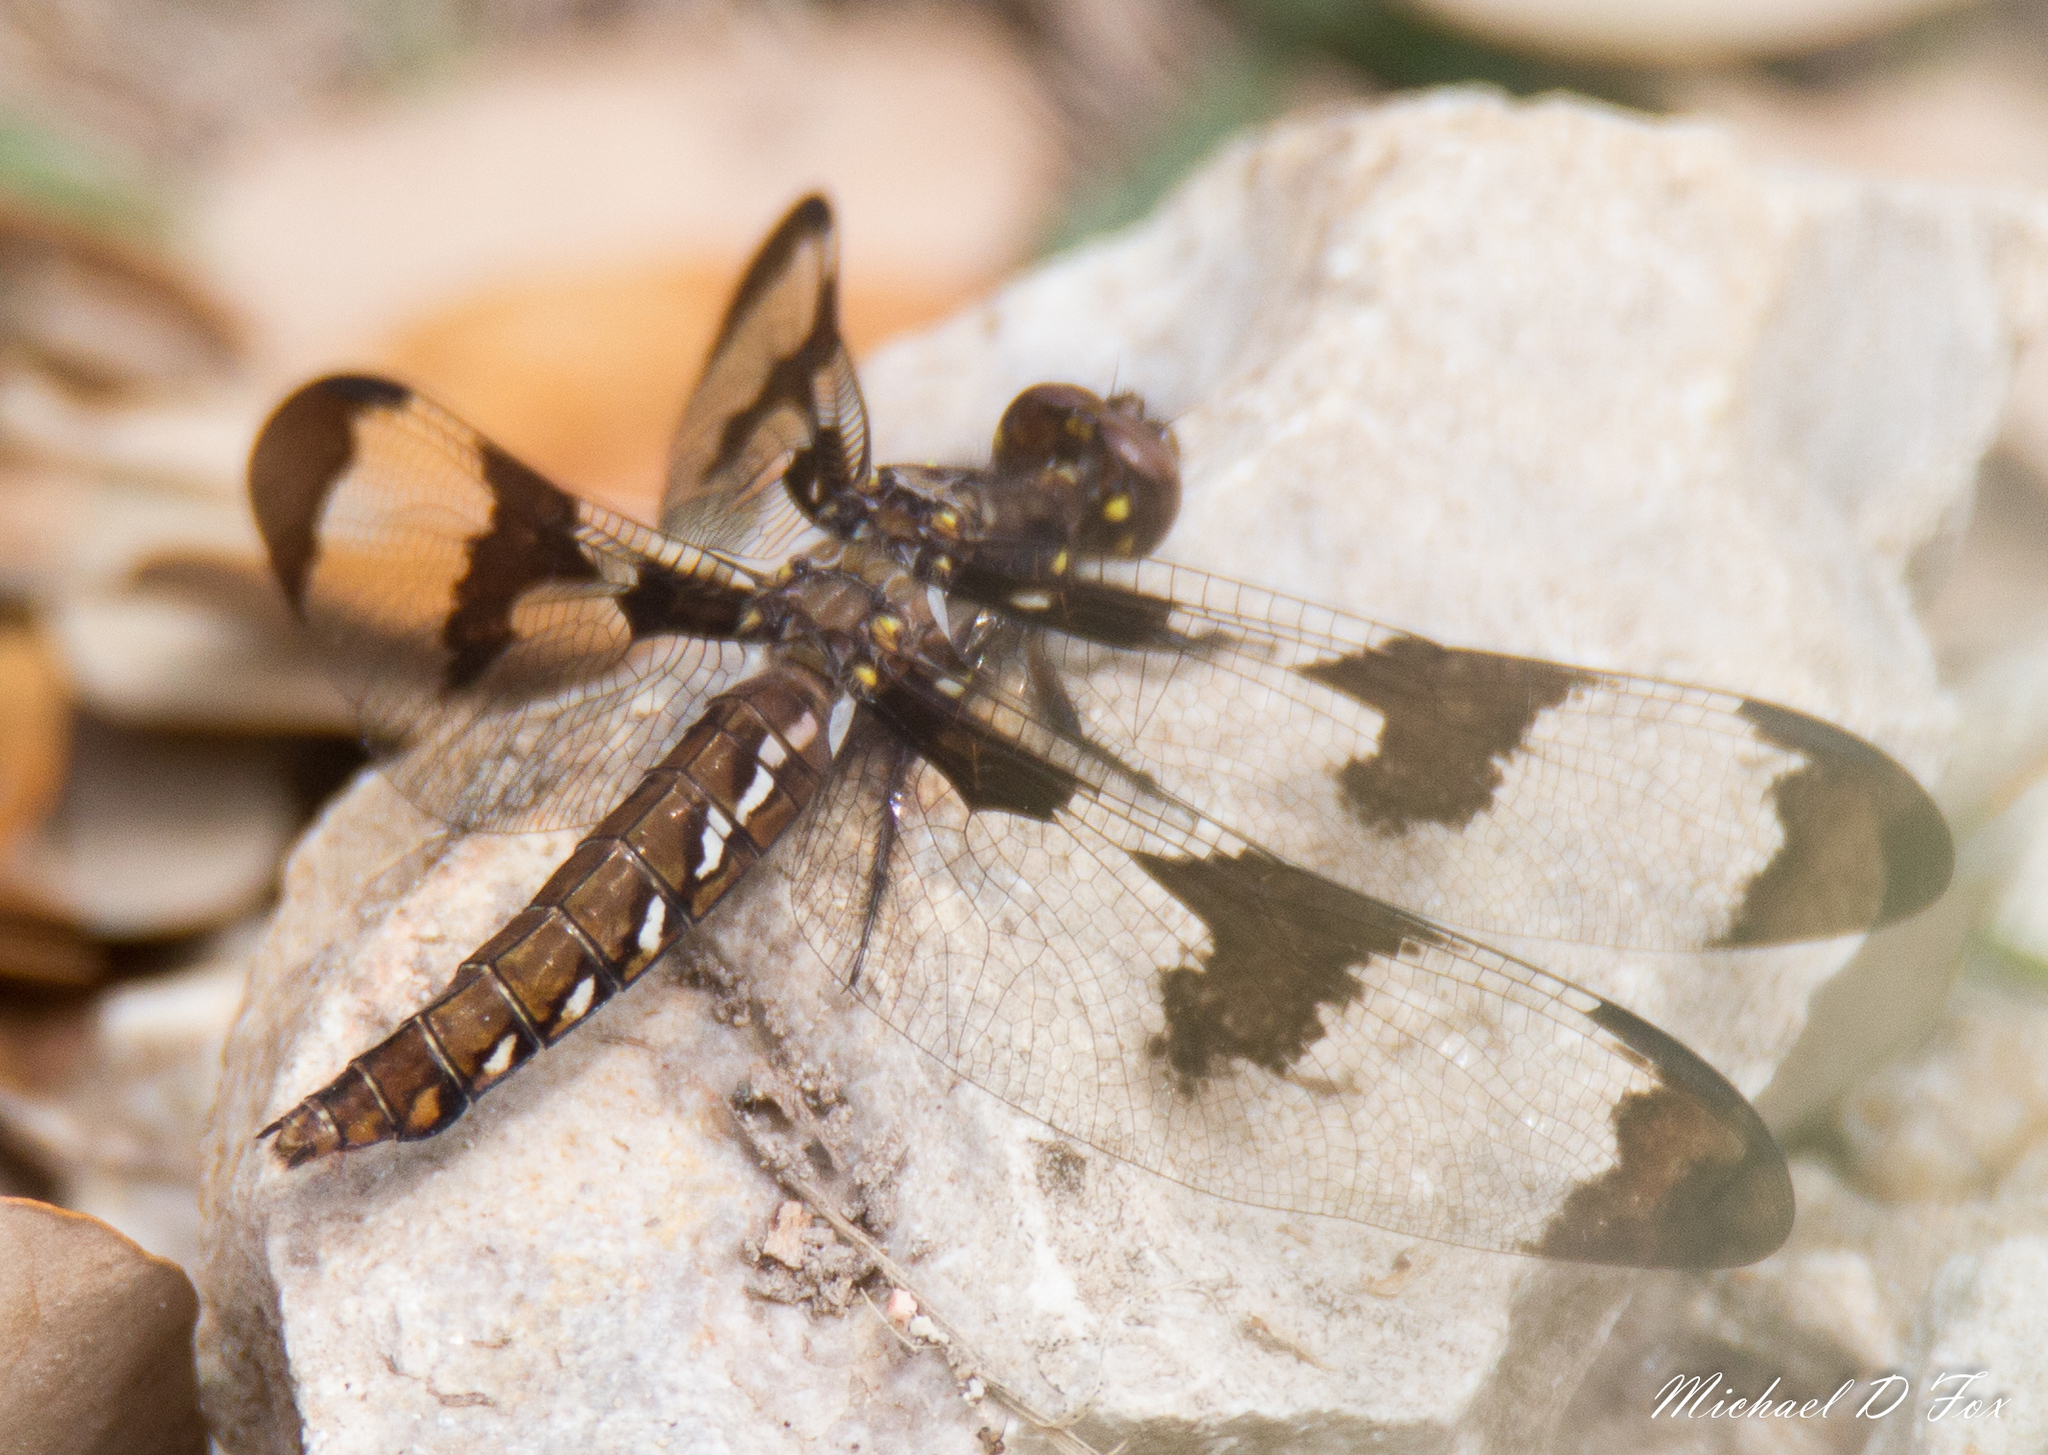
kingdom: Animalia
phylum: Arthropoda
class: Insecta
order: Odonata
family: Libellulidae
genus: Plathemis
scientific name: Plathemis lydia
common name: Common whitetail
